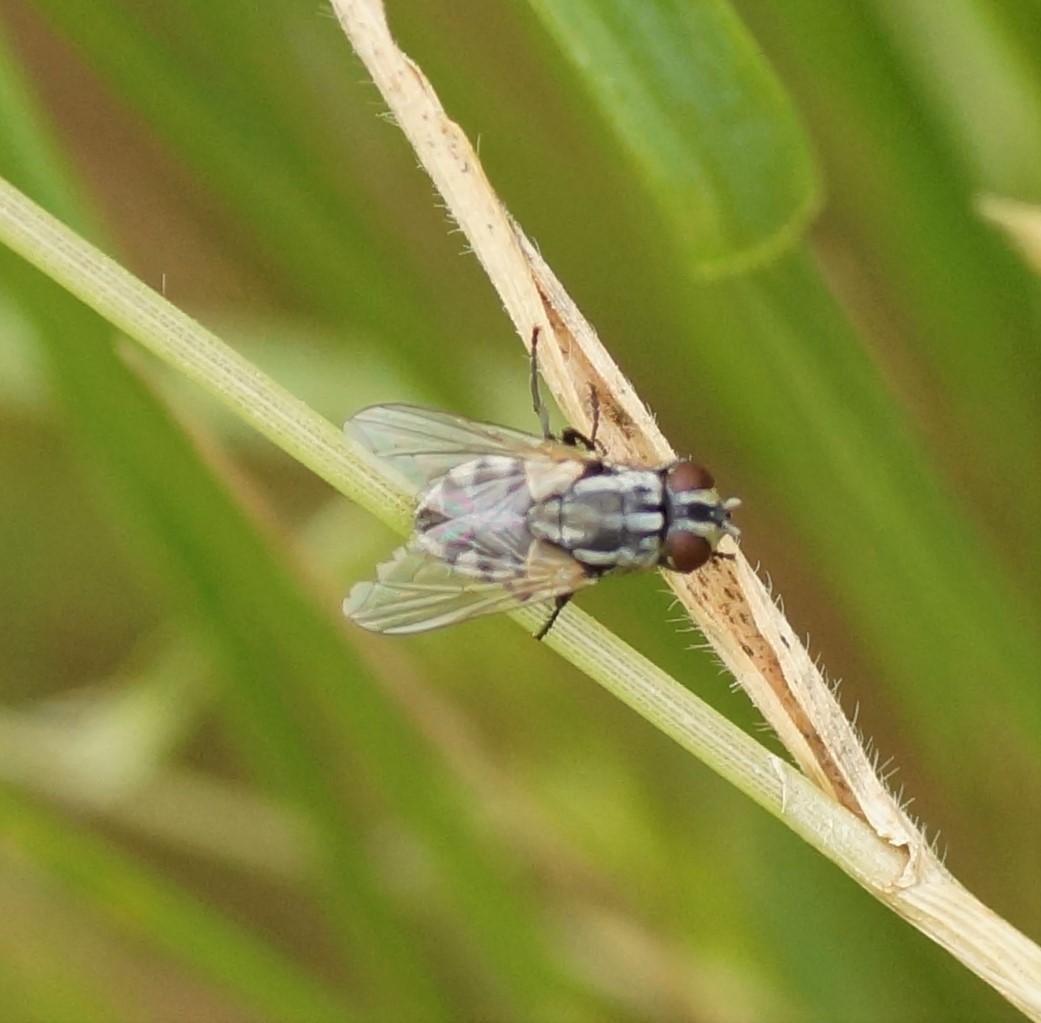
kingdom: Animalia
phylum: Arthropoda
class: Insecta
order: Diptera
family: Muscidae
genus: Musca
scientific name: Musca vetustissima
